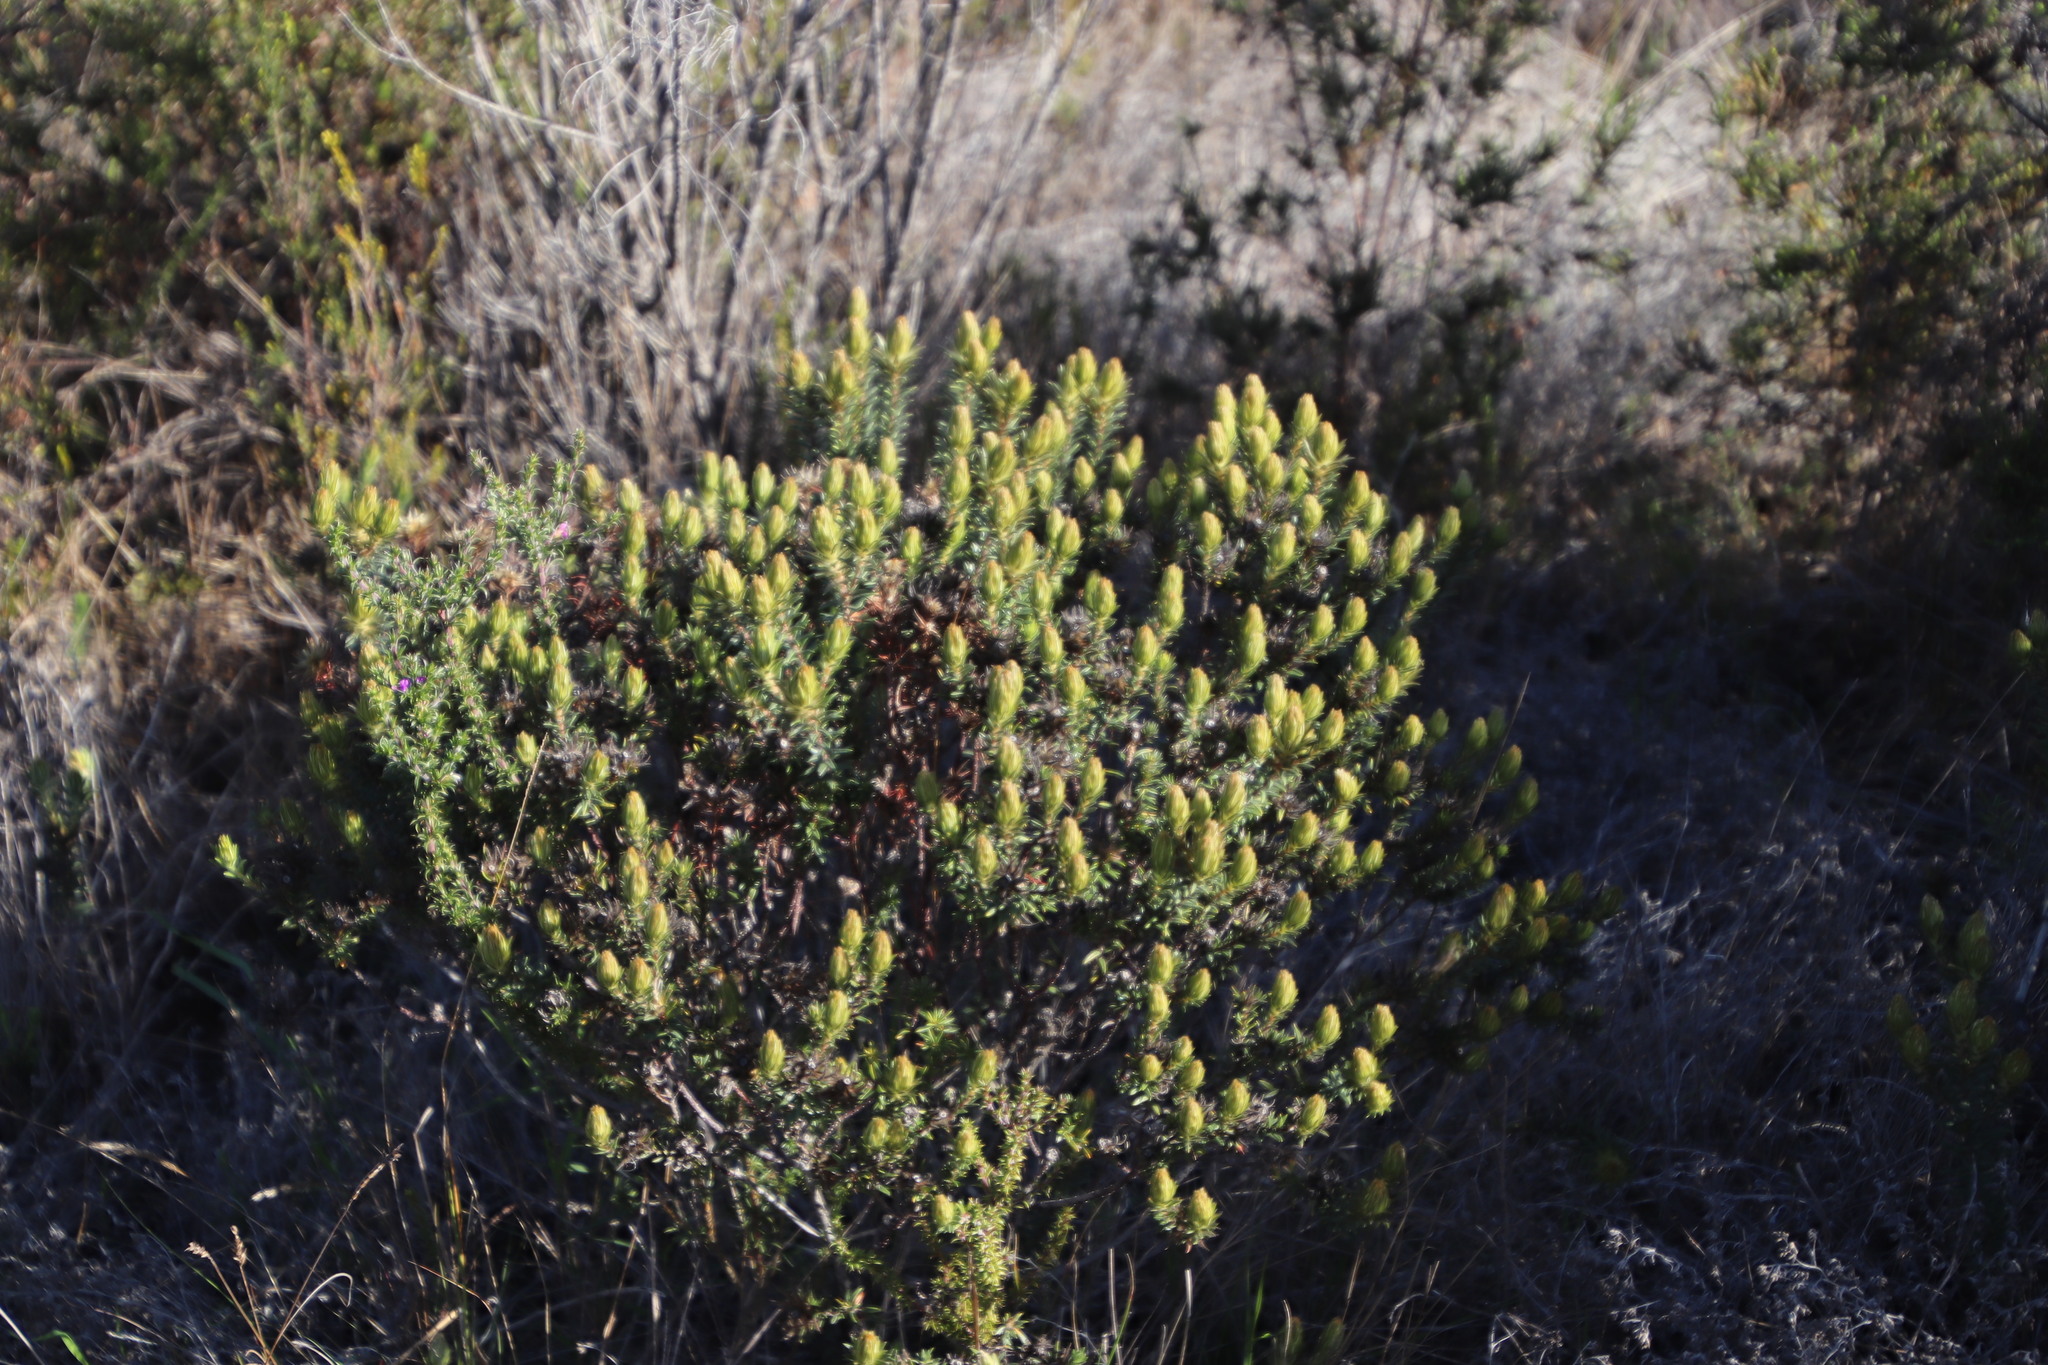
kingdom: Plantae
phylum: Tracheophyta
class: Magnoliopsida
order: Rosales
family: Rhamnaceae
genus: Phylica
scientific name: Phylica pubescens
